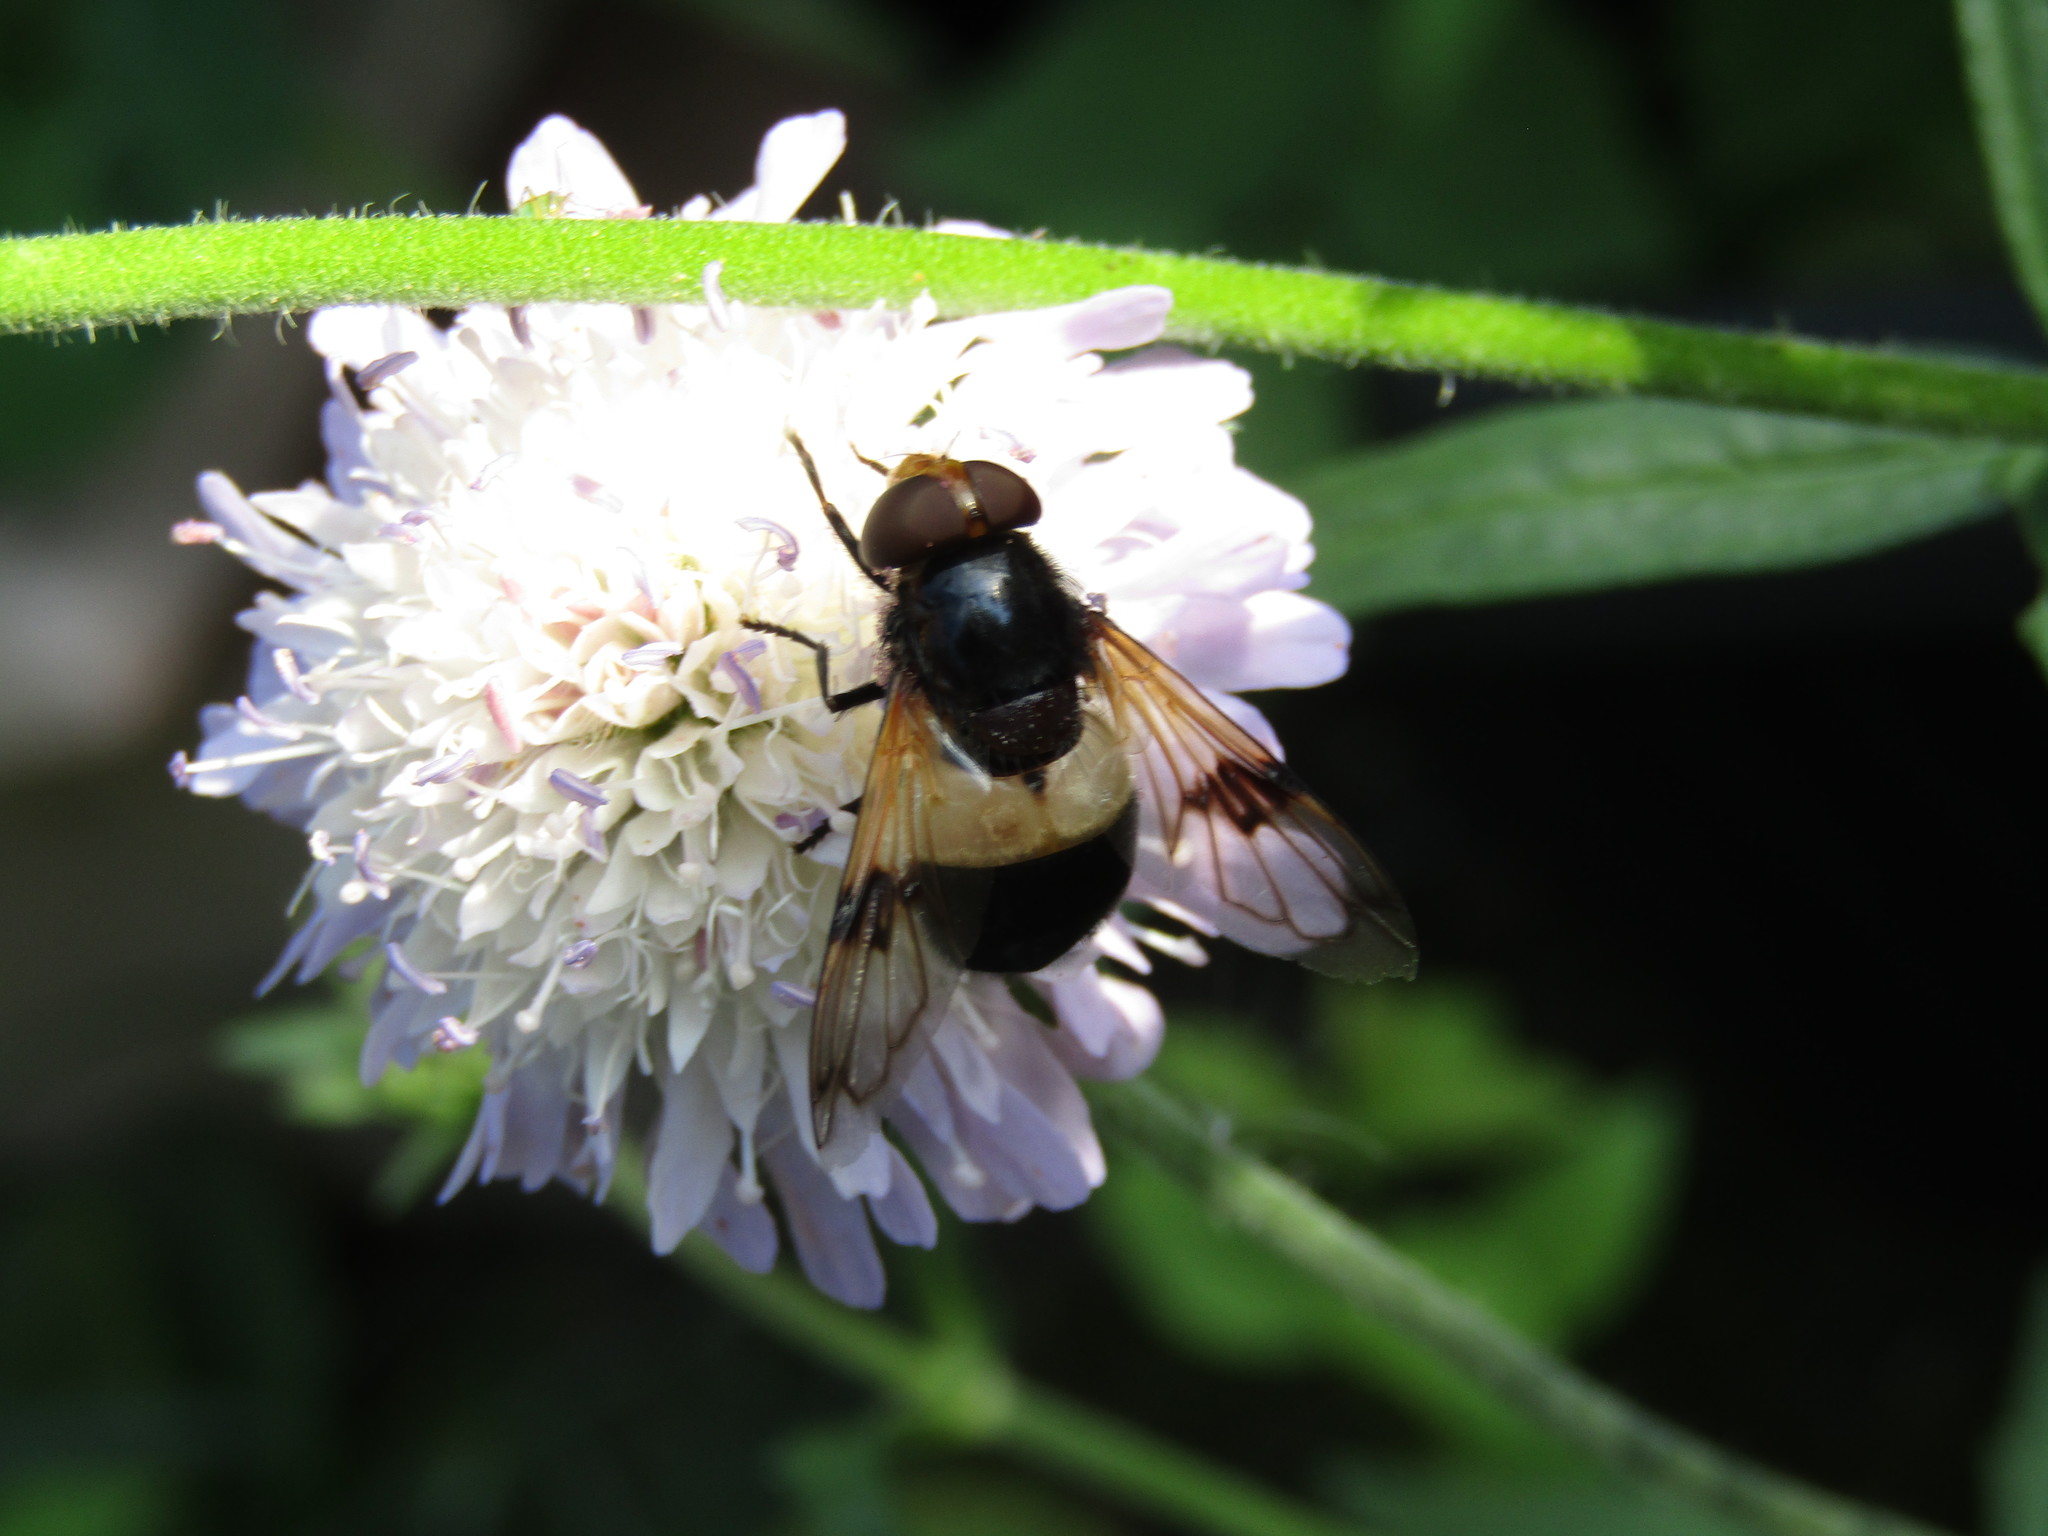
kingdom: Animalia
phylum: Arthropoda
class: Insecta
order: Diptera
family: Syrphidae
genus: Volucella
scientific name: Volucella pellucens
